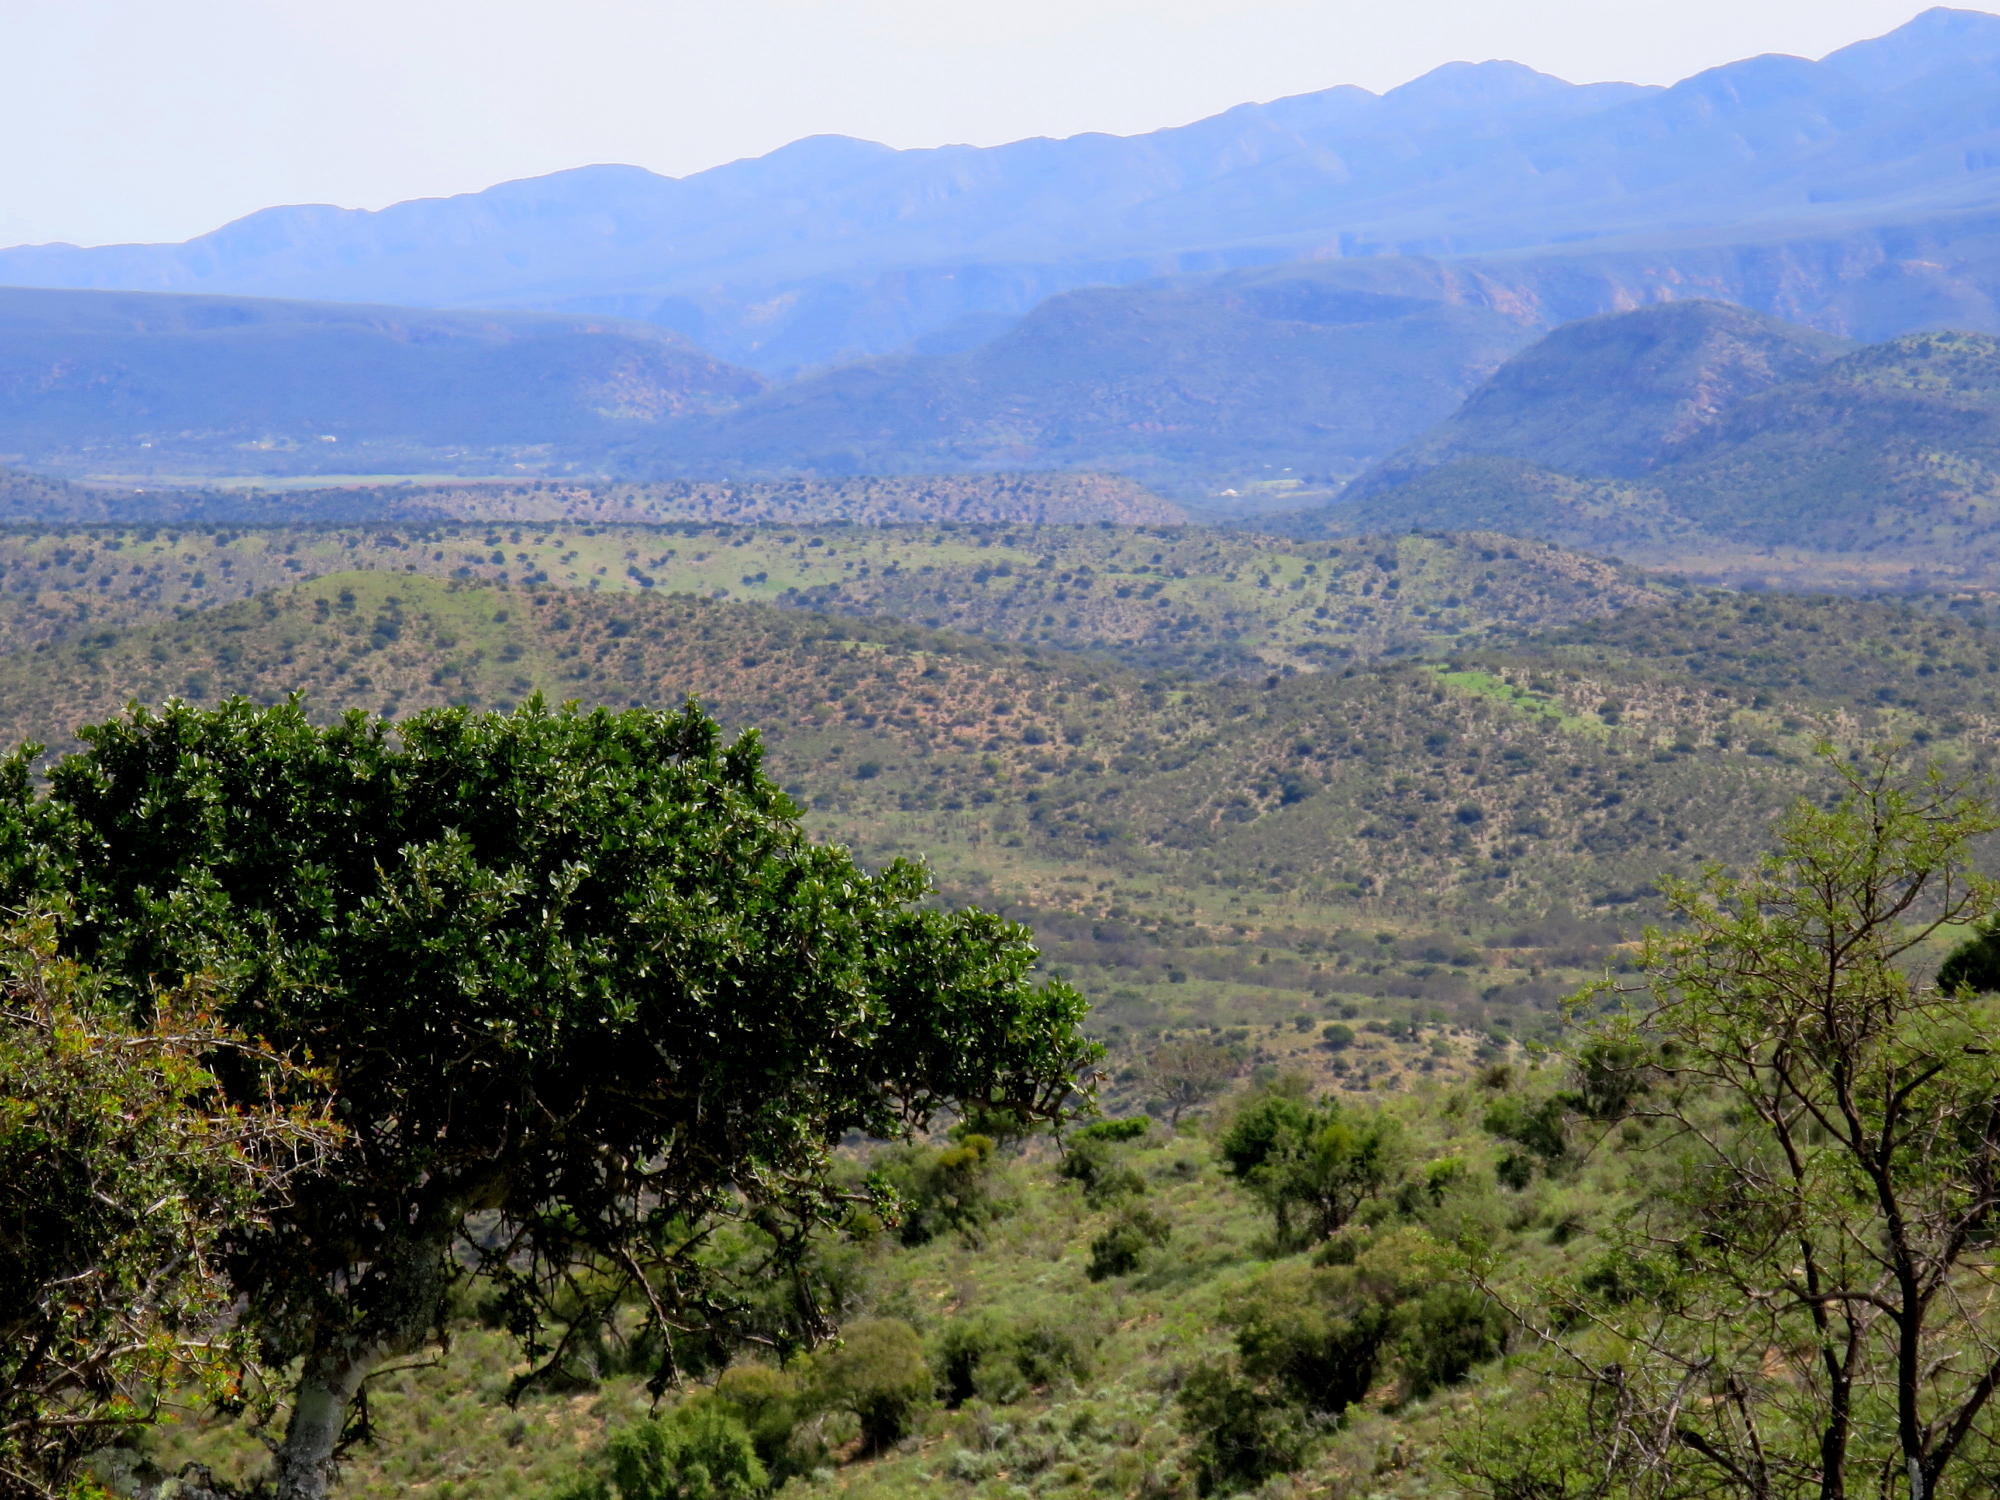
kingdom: Plantae
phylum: Tracheophyta
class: Magnoliopsida
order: Sapindales
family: Sapindaceae
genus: Pappea
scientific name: Pappea capensis
